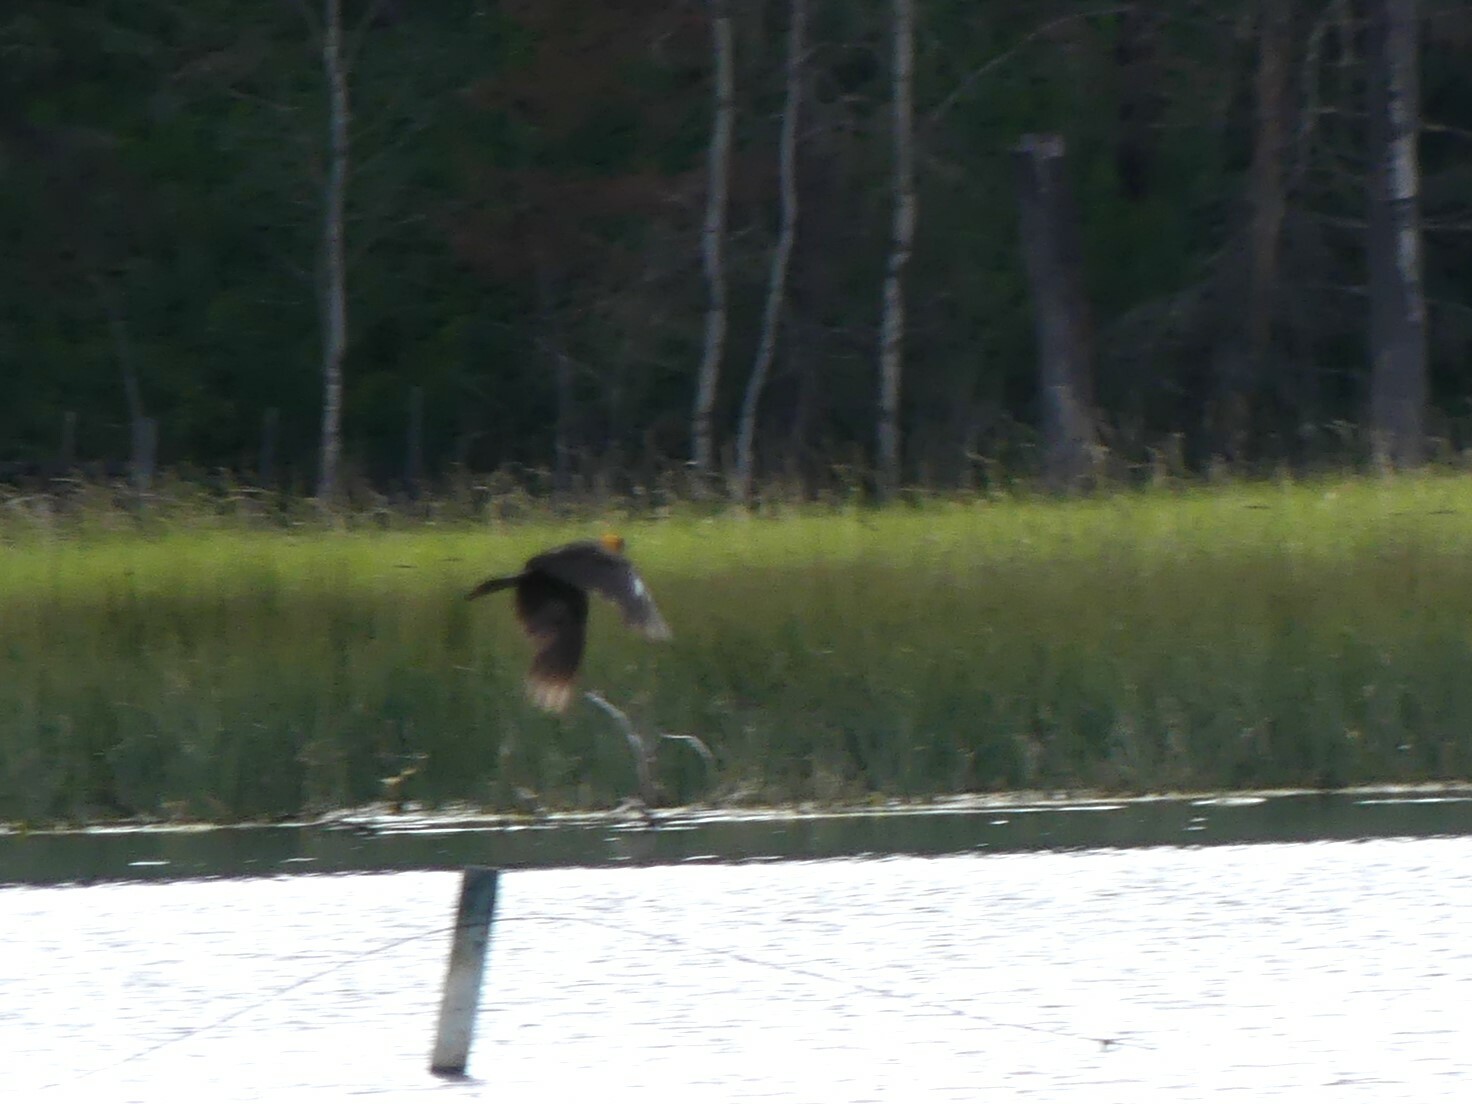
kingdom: Animalia
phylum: Chordata
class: Aves
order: Passeriformes
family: Icteridae
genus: Xanthocephalus
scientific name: Xanthocephalus xanthocephalus
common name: Yellow-headed blackbird
